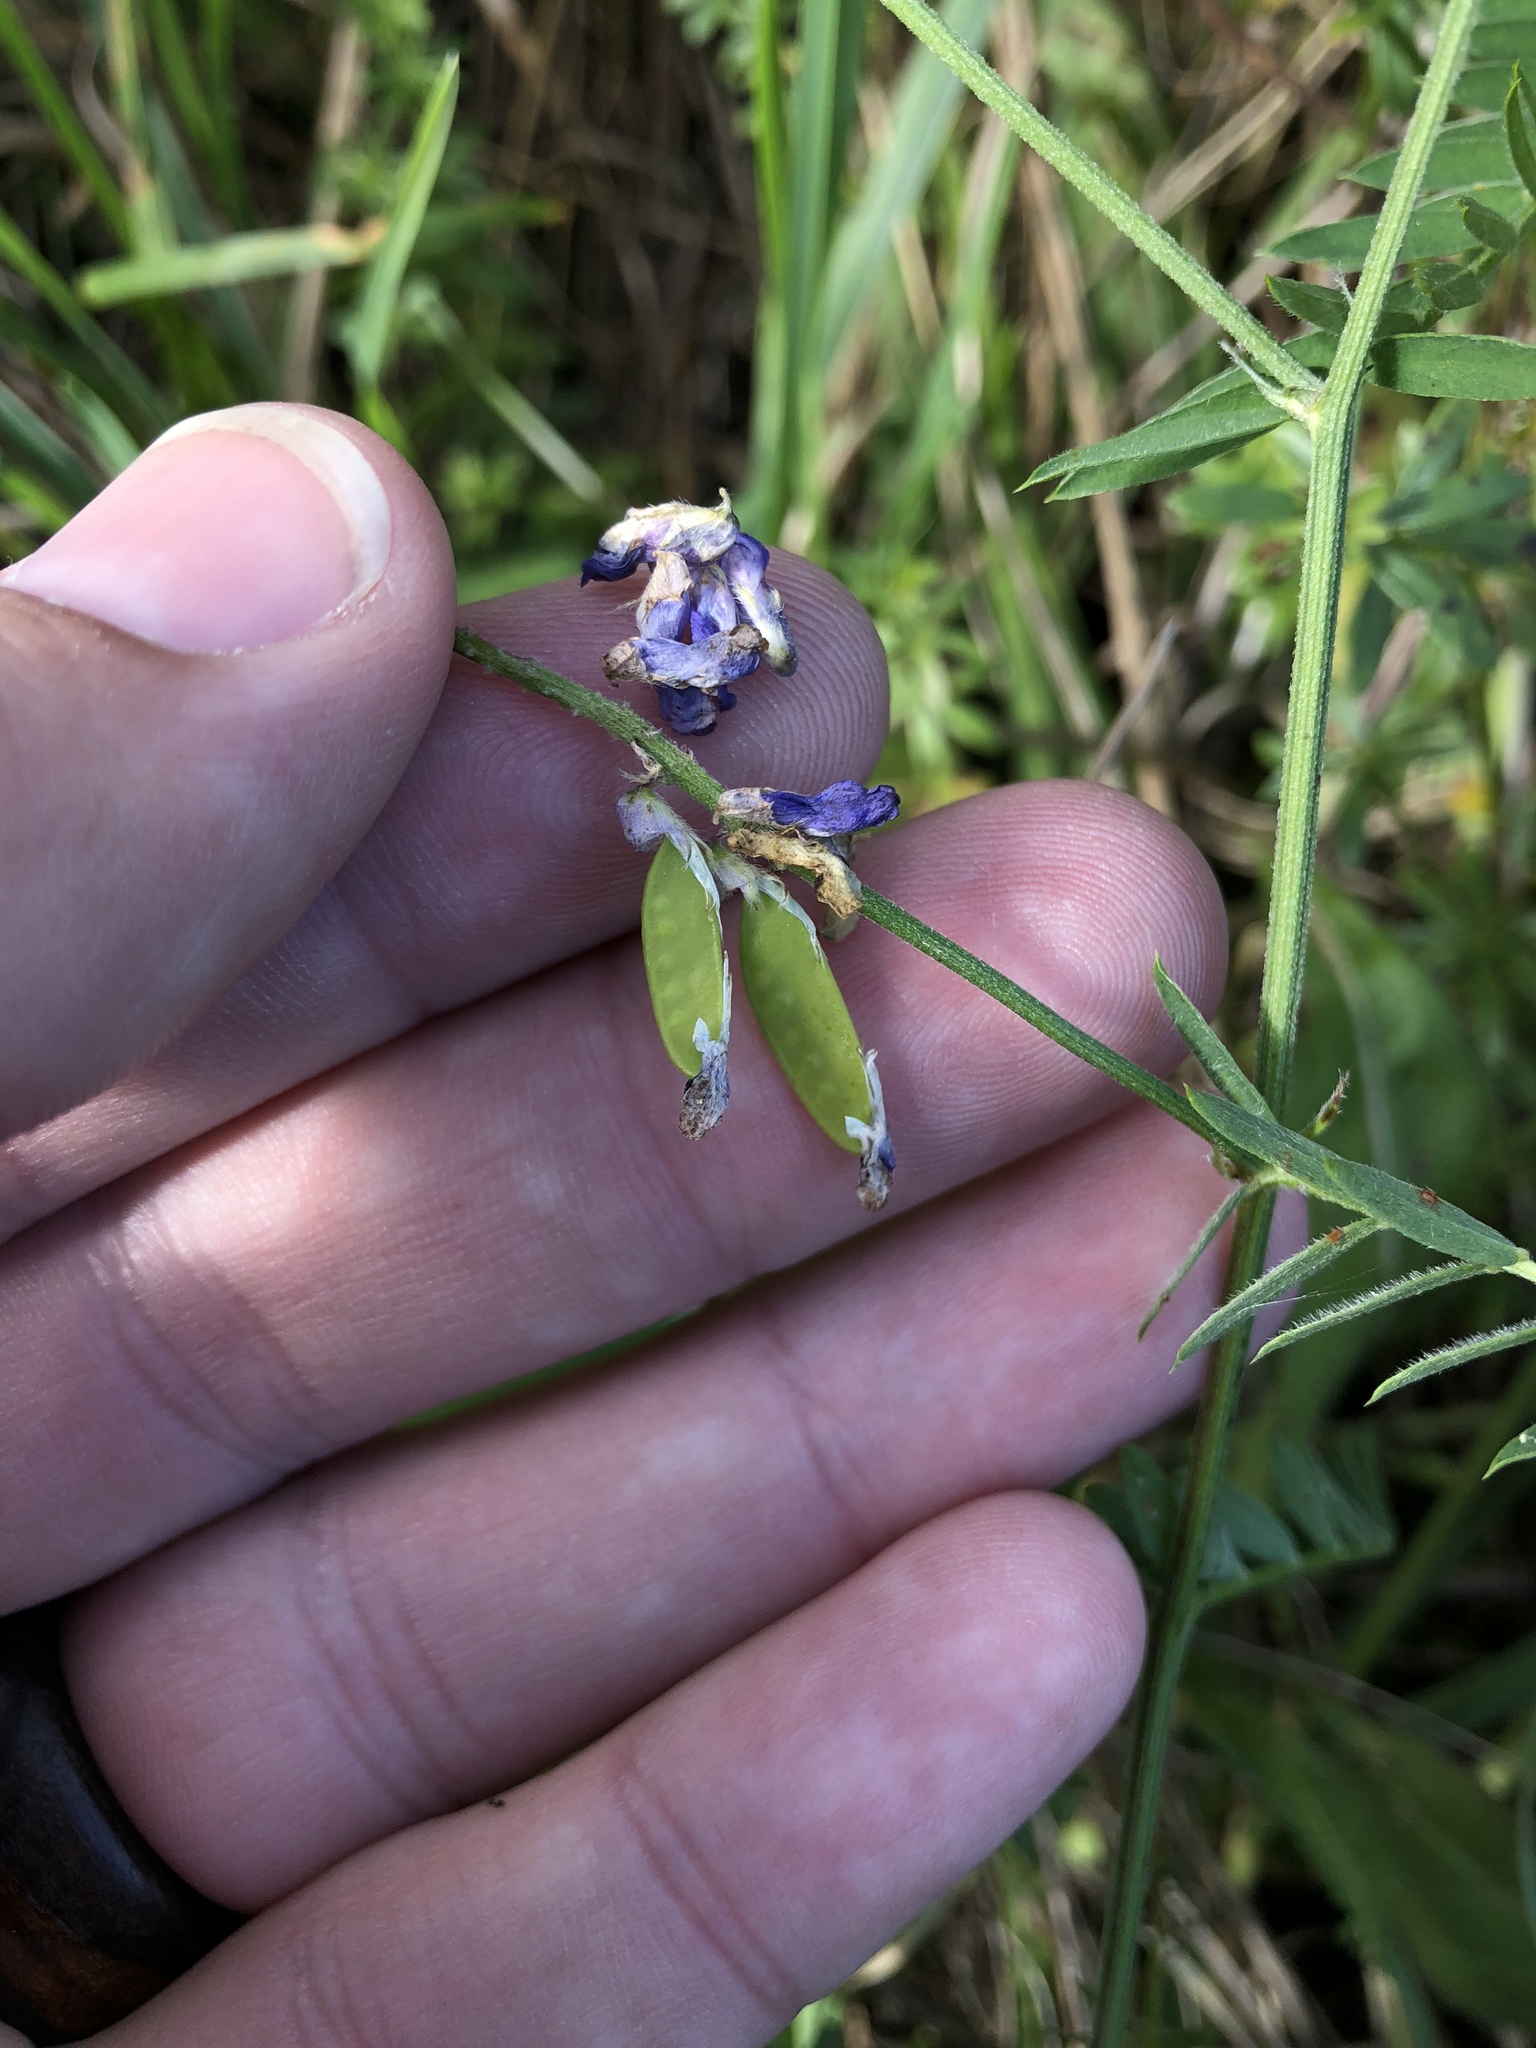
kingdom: Plantae
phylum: Tracheophyta
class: Magnoliopsida
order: Fabales
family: Fabaceae
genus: Vicia
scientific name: Vicia cracca
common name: Bird vetch
